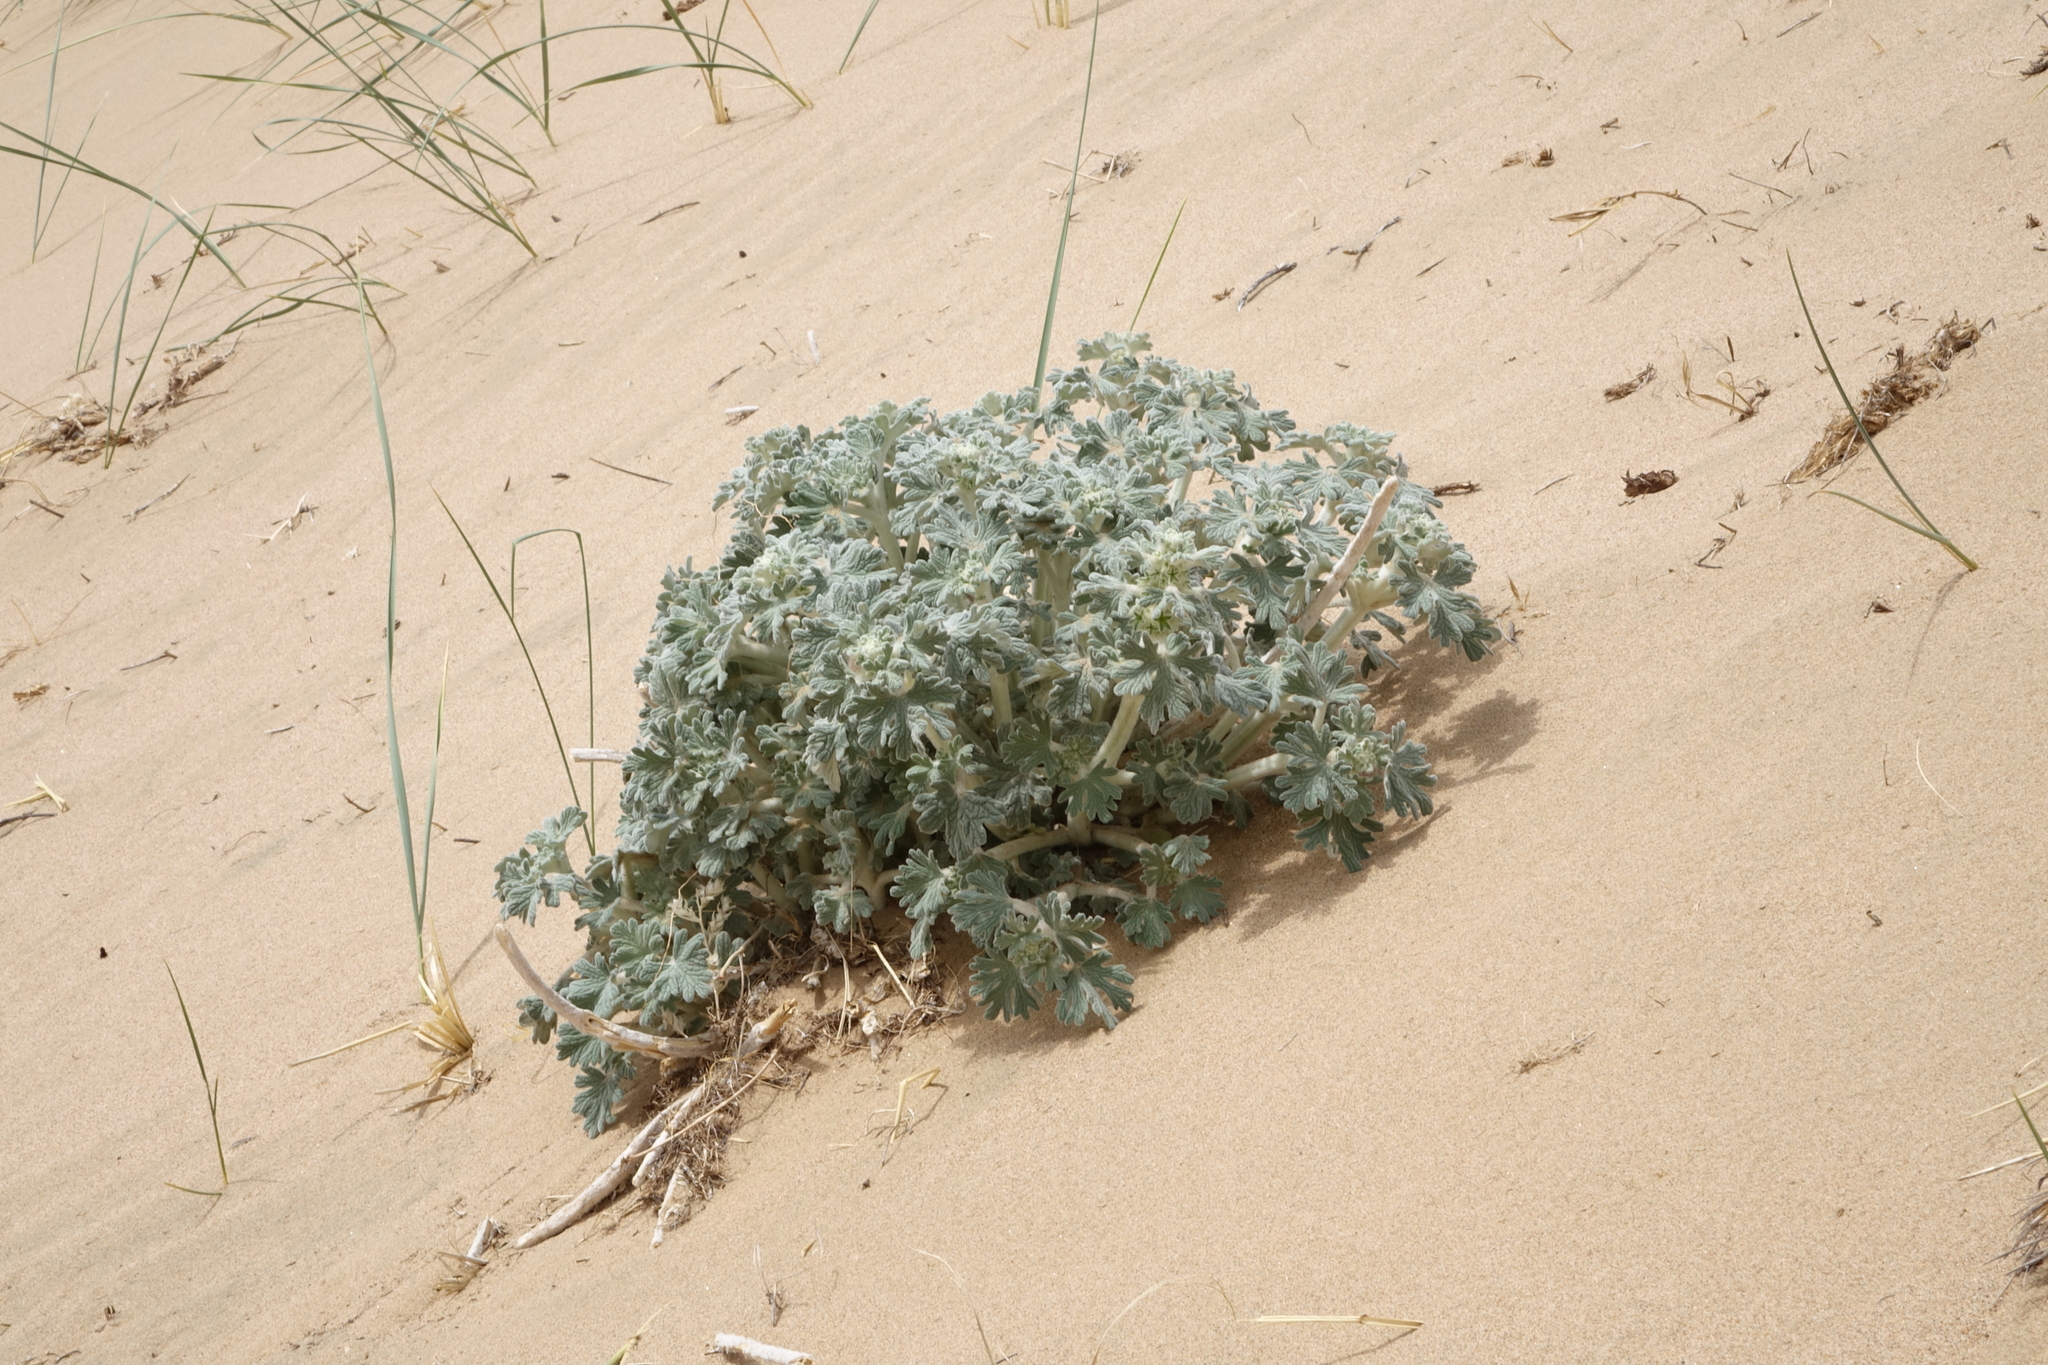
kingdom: Plantae
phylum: Tracheophyta
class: Magnoliopsida
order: Lamiales
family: Lamiaceae
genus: Panzerina
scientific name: Panzerina lanata
